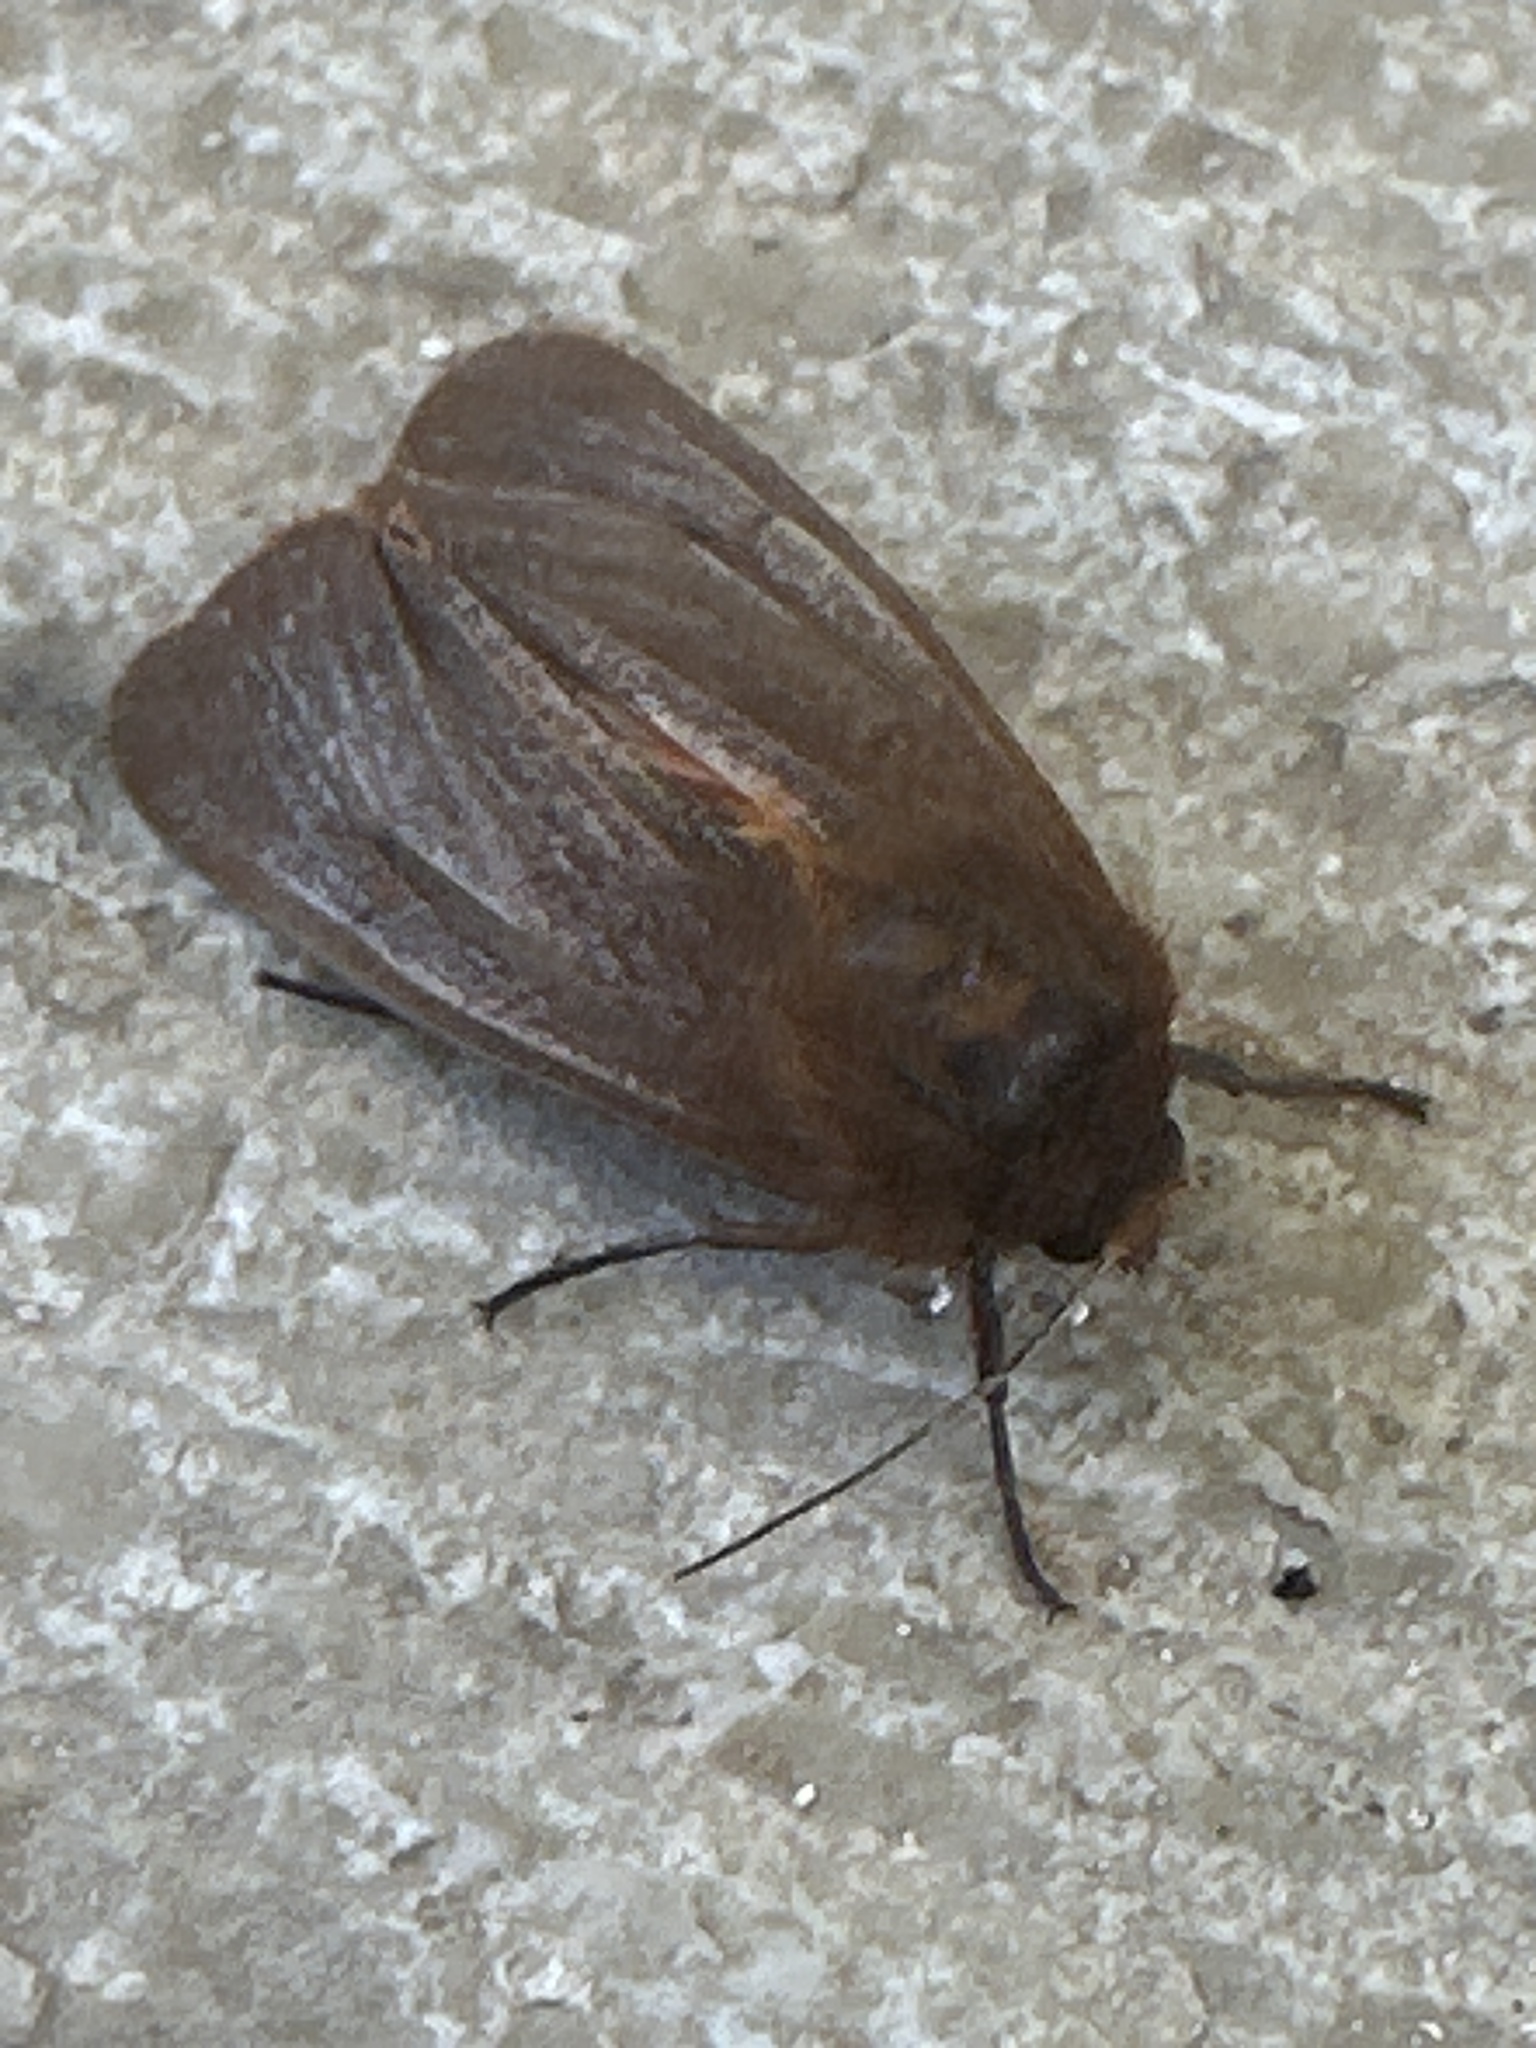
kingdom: Animalia
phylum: Arthropoda
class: Insecta
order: Lepidoptera
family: Erebidae
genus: Phragmatobia
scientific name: Phragmatobia fuliginosa
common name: Ruby tiger
